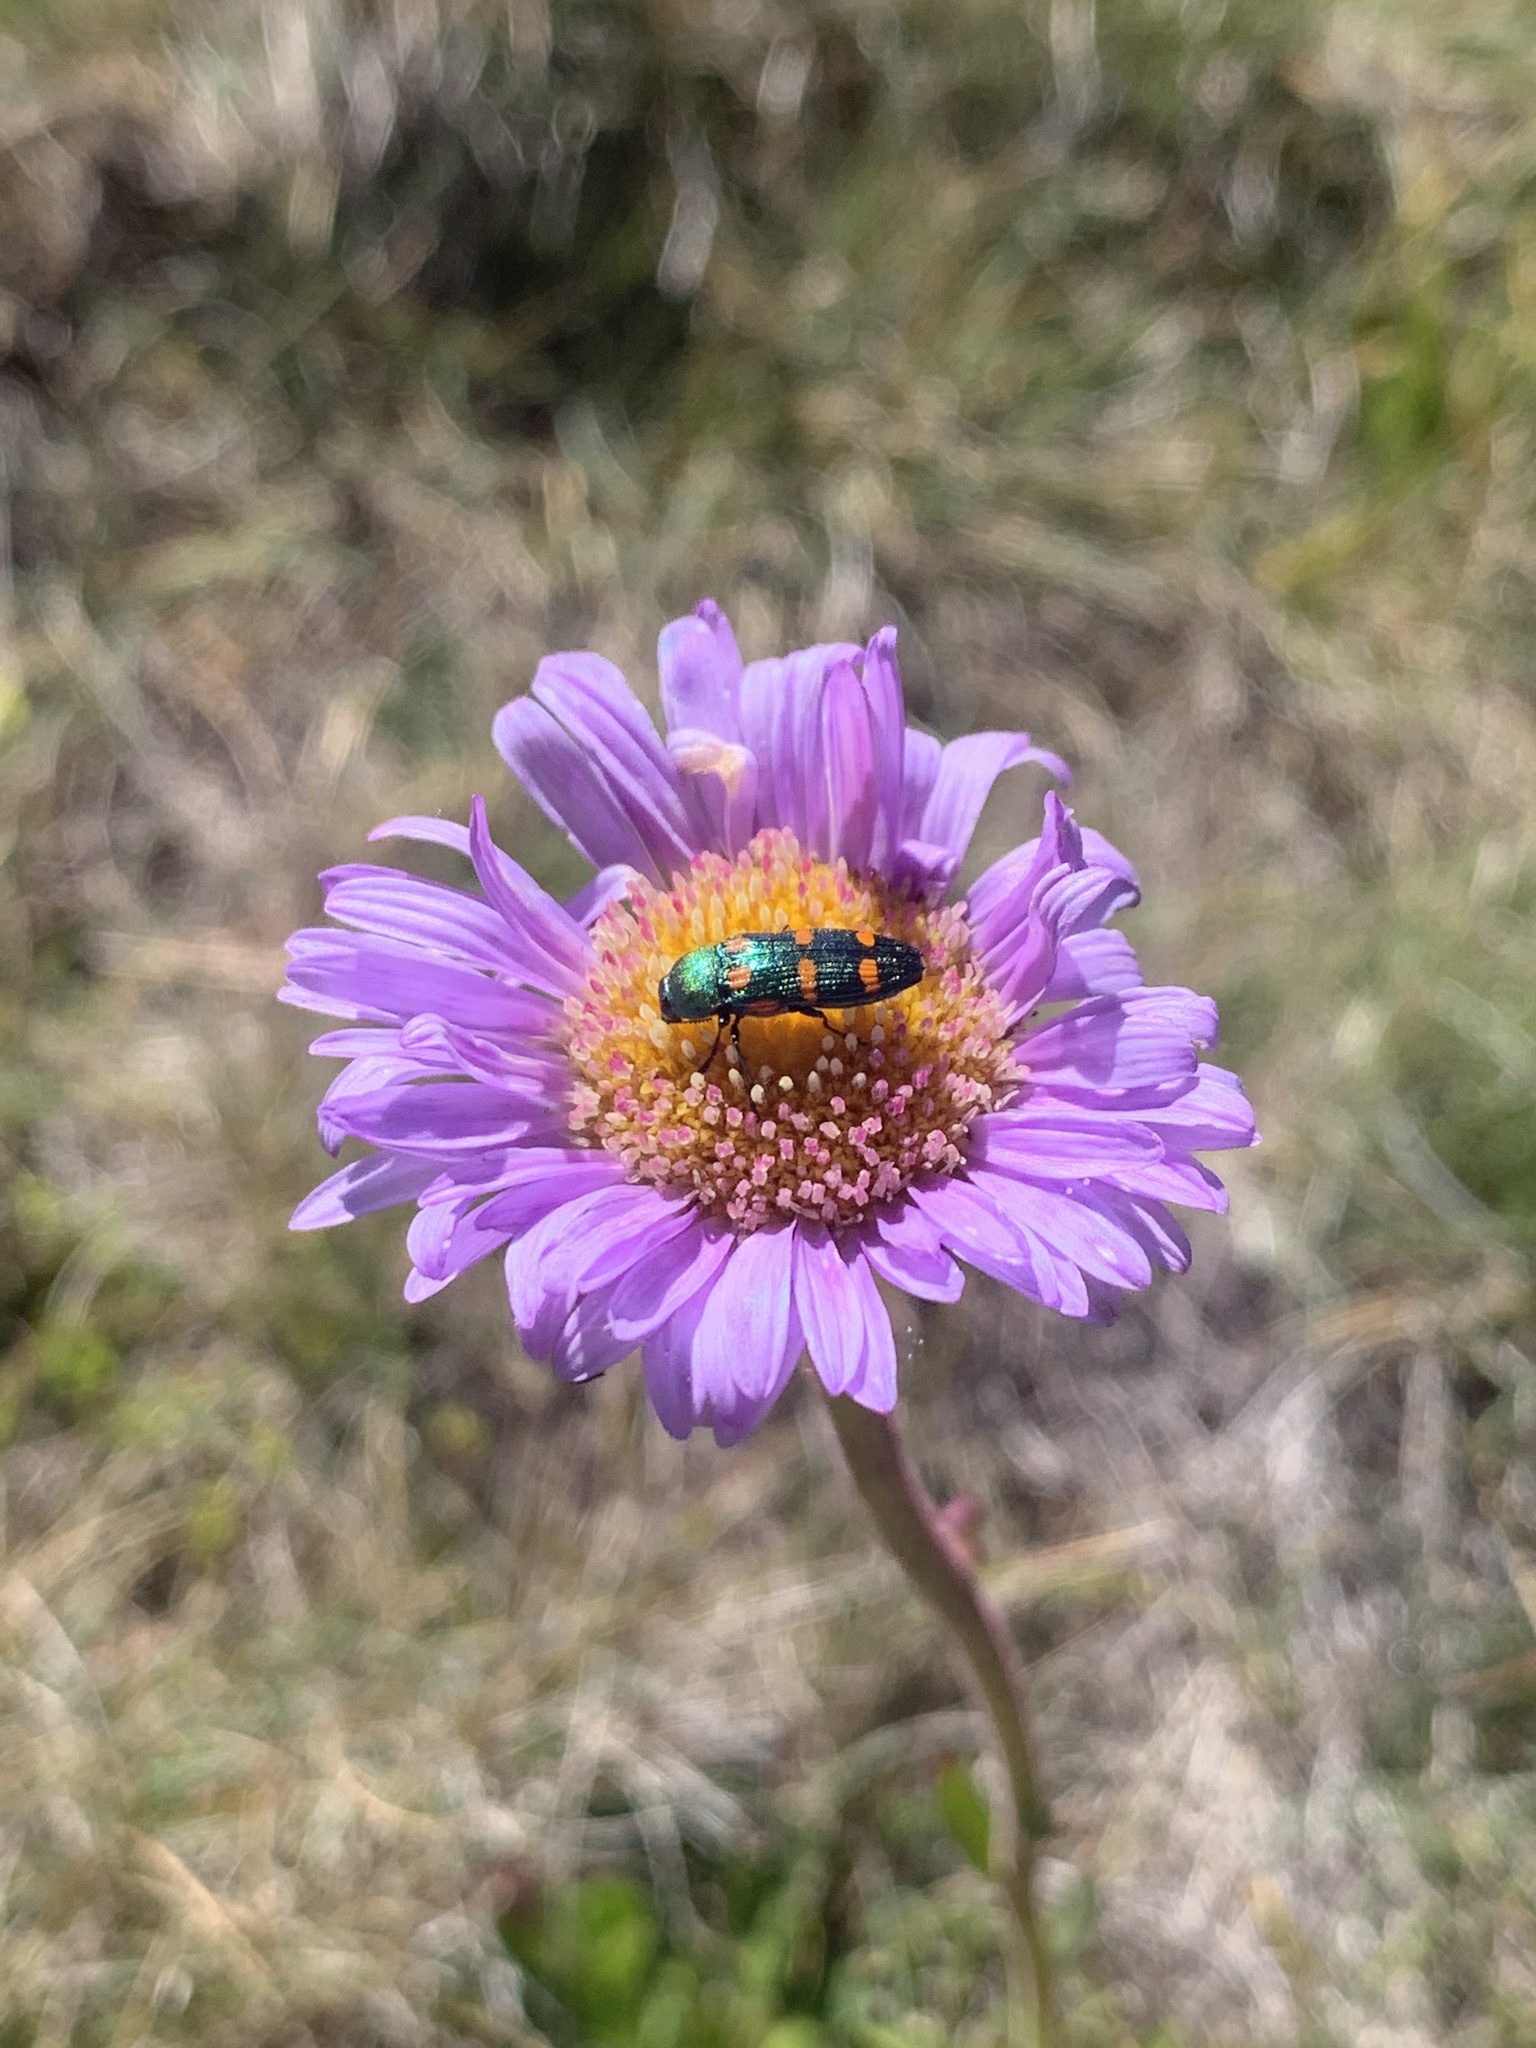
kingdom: Animalia
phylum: Arthropoda
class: Insecta
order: Coleoptera
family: Buprestidae
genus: Castiarina
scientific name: Castiarina montigena
